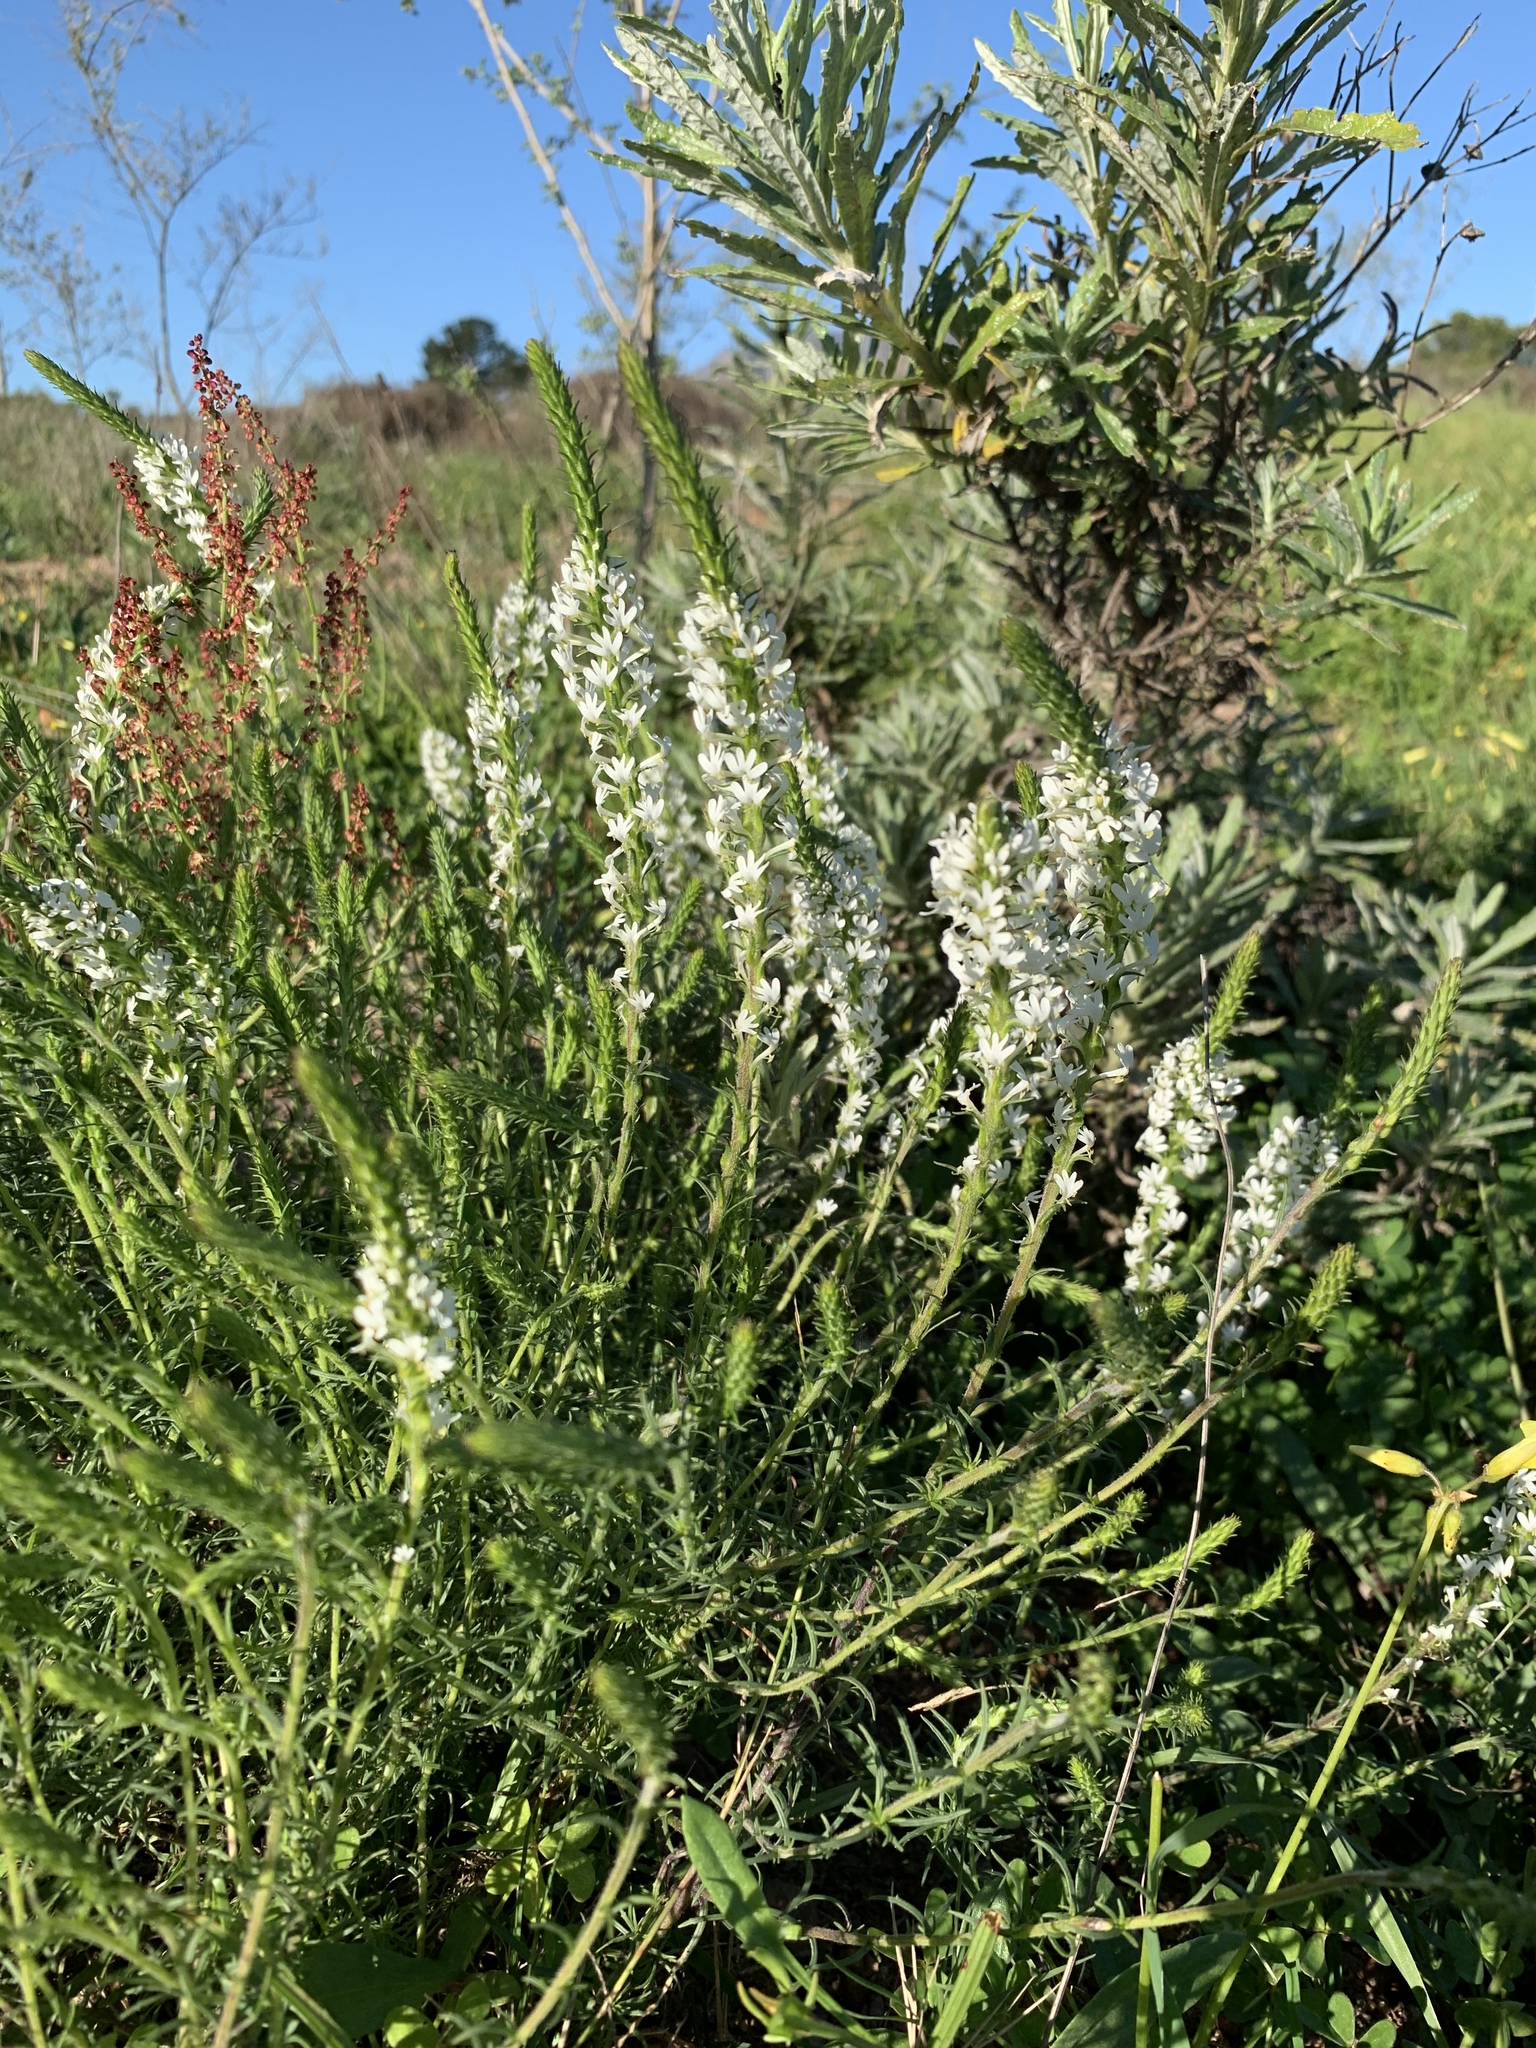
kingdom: Plantae
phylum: Tracheophyta
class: Magnoliopsida
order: Lamiales
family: Scrophulariaceae
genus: Dischisma
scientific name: Dischisma ciliatum
